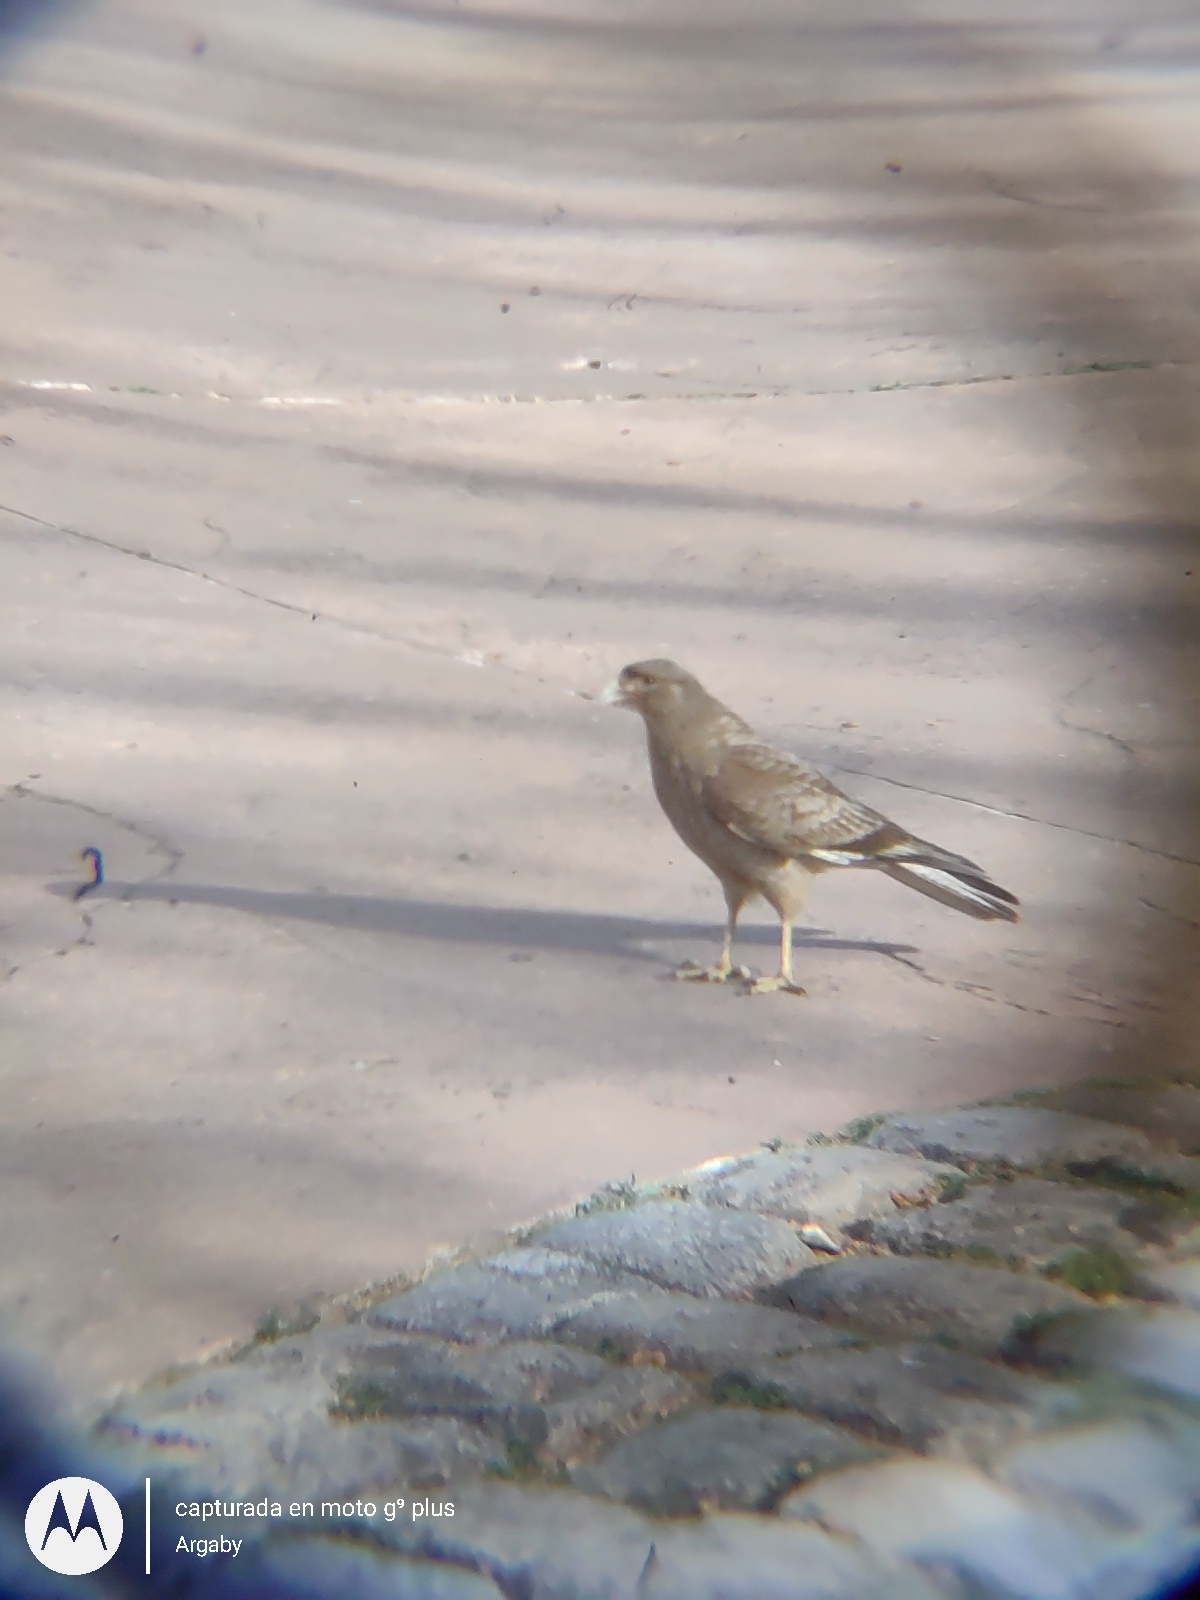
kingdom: Animalia
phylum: Chordata
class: Aves
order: Falconiformes
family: Falconidae
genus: Daptrius
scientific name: Daptrius
